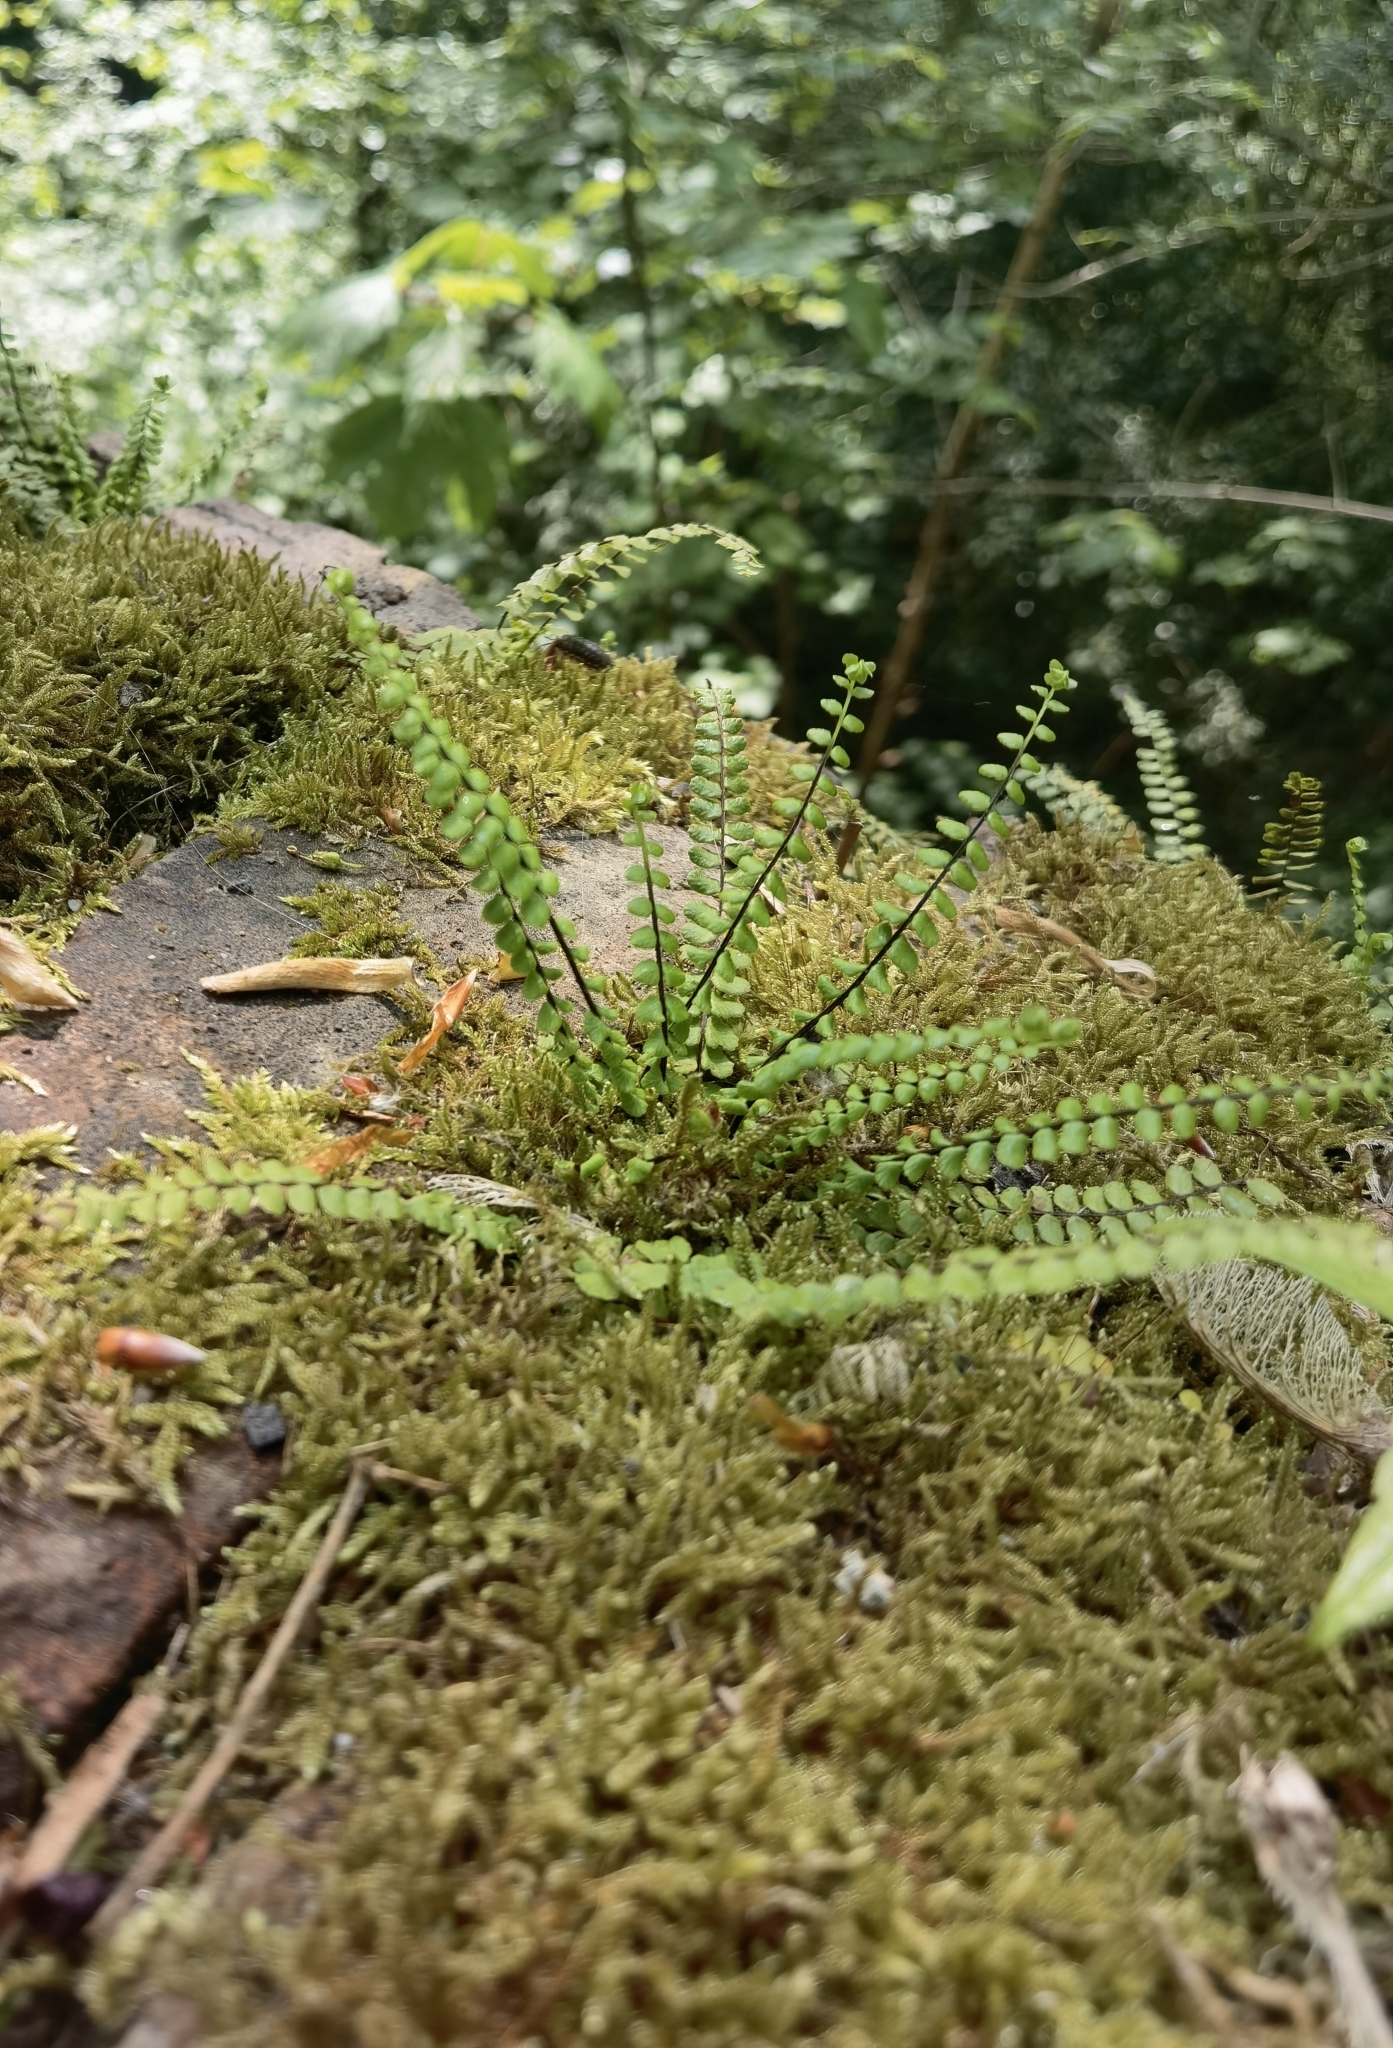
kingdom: Plantae
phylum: Tracheophyta
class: Polypodiopsida
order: Polypodiales
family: Aspleniaceae
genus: Asplenium
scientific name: Asplenium trichomanes
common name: Maidenhair spleenwort
